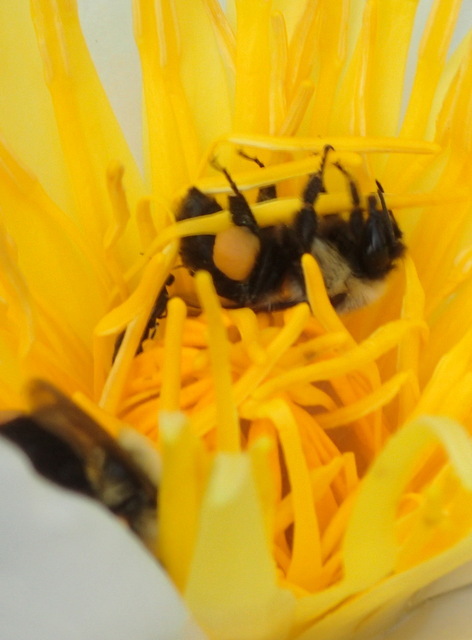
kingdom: Animalia
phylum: Arthropoda
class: Insecta
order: Hymenoptera
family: Apidae
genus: Bombus
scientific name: Bombus impatiens
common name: Common eastern bumble bee
